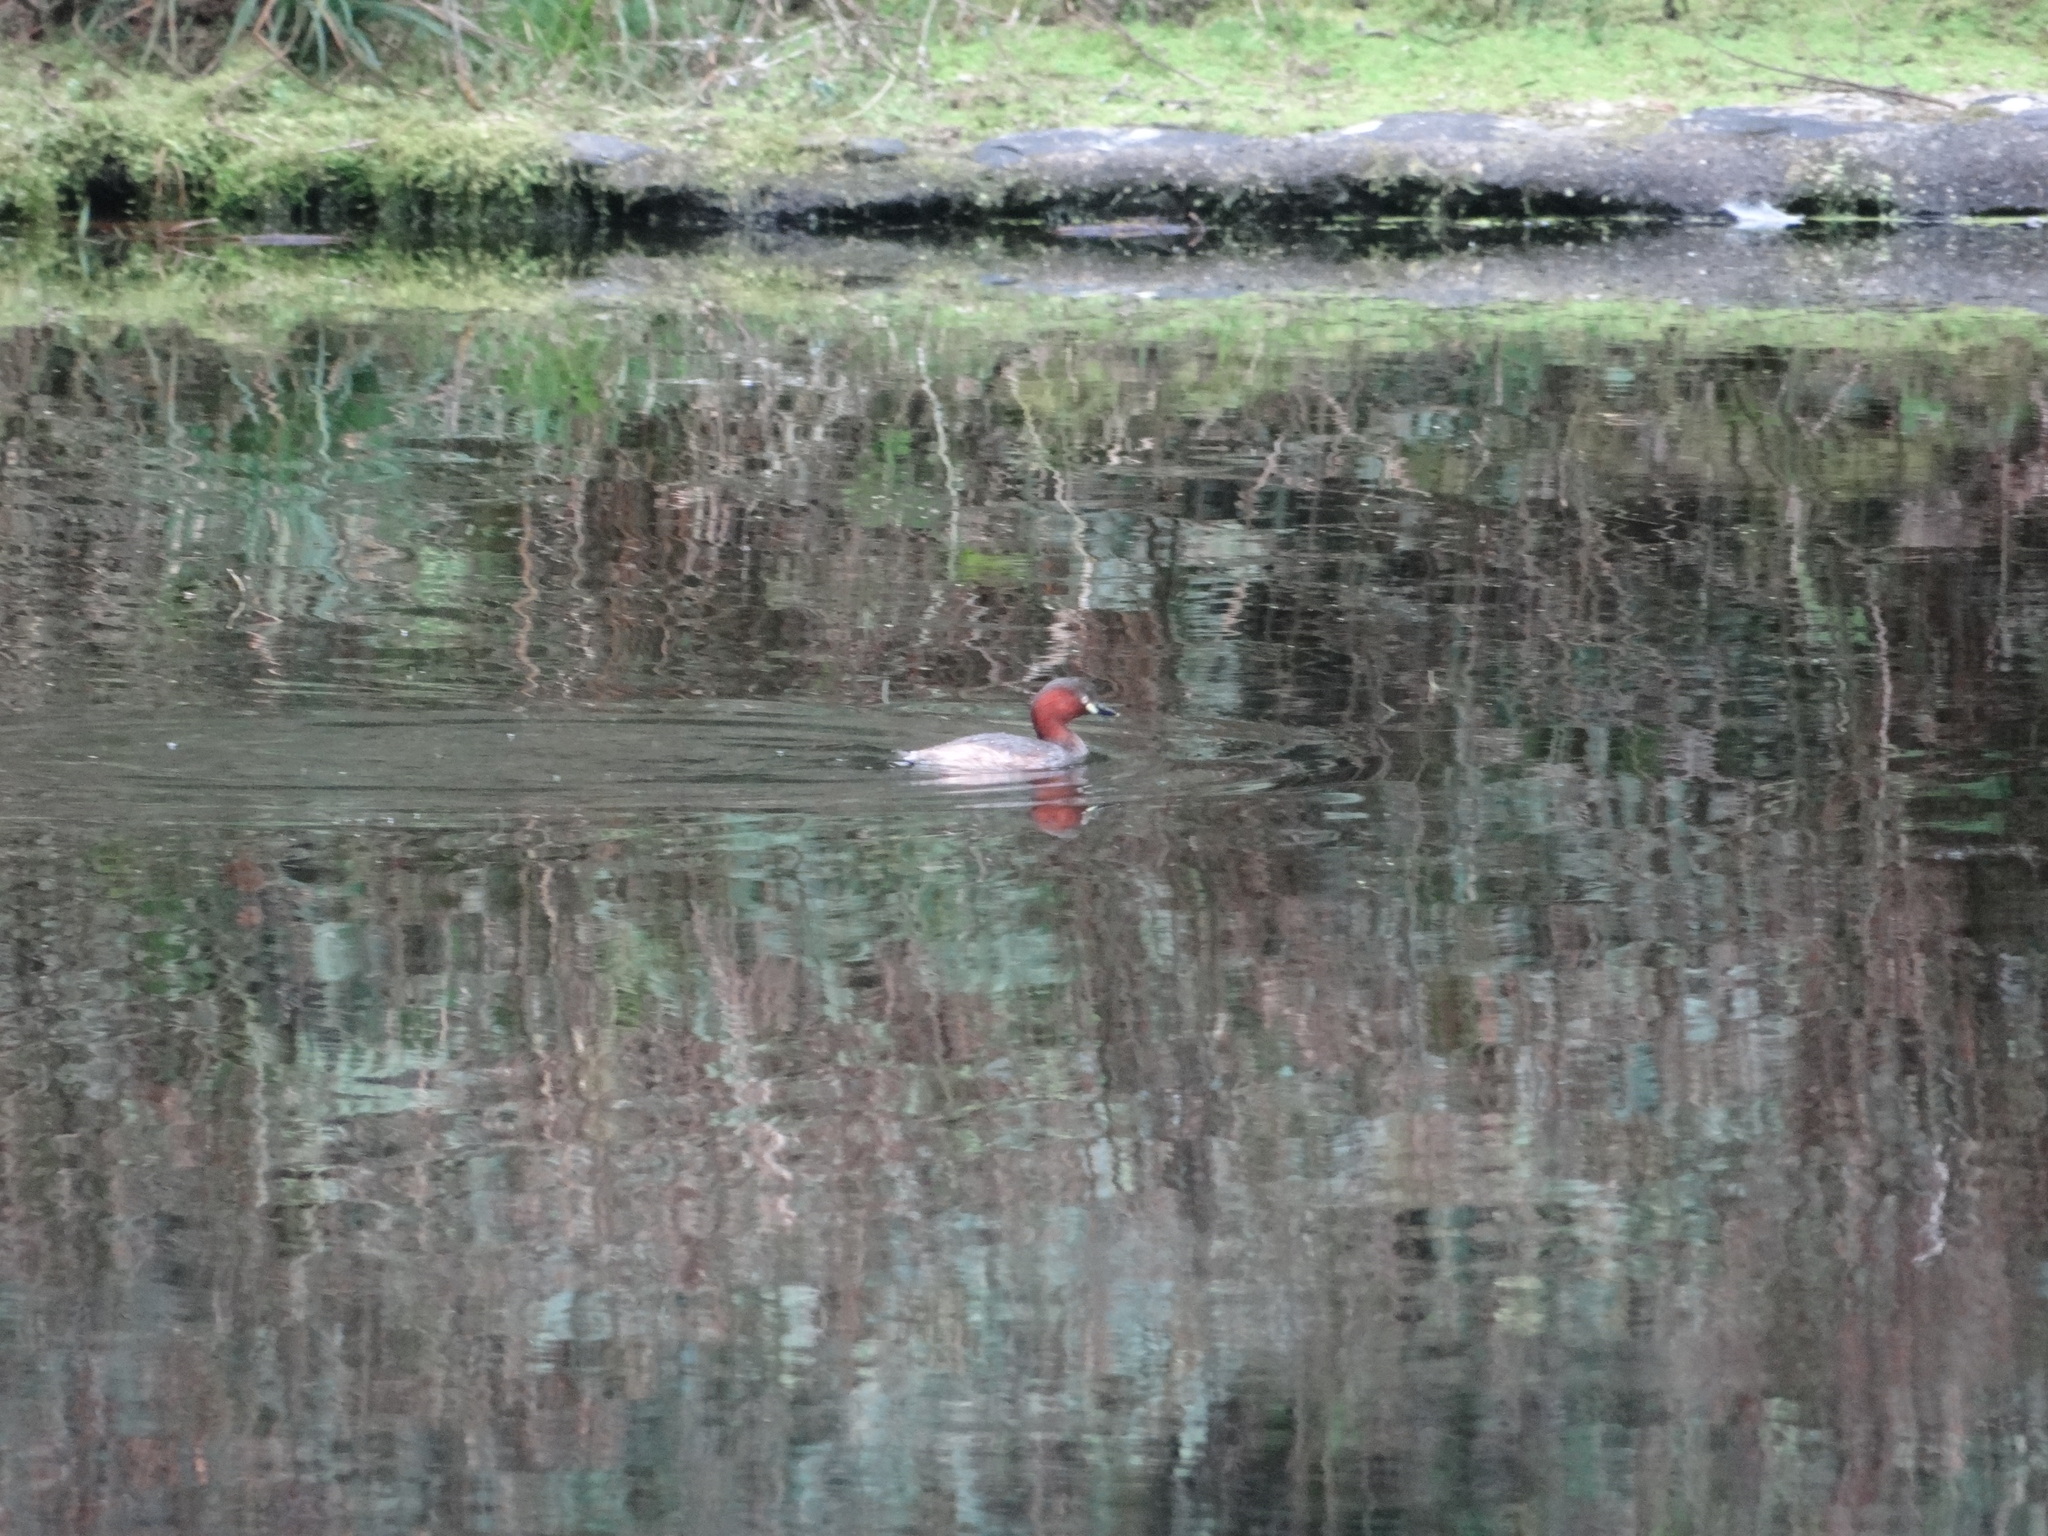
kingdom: Animalia
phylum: Chordata
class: Aves
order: Podicipediformes
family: Podicipedidae
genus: Tachybaptus
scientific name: Tachybaptus ruficollis
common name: Little grebe
